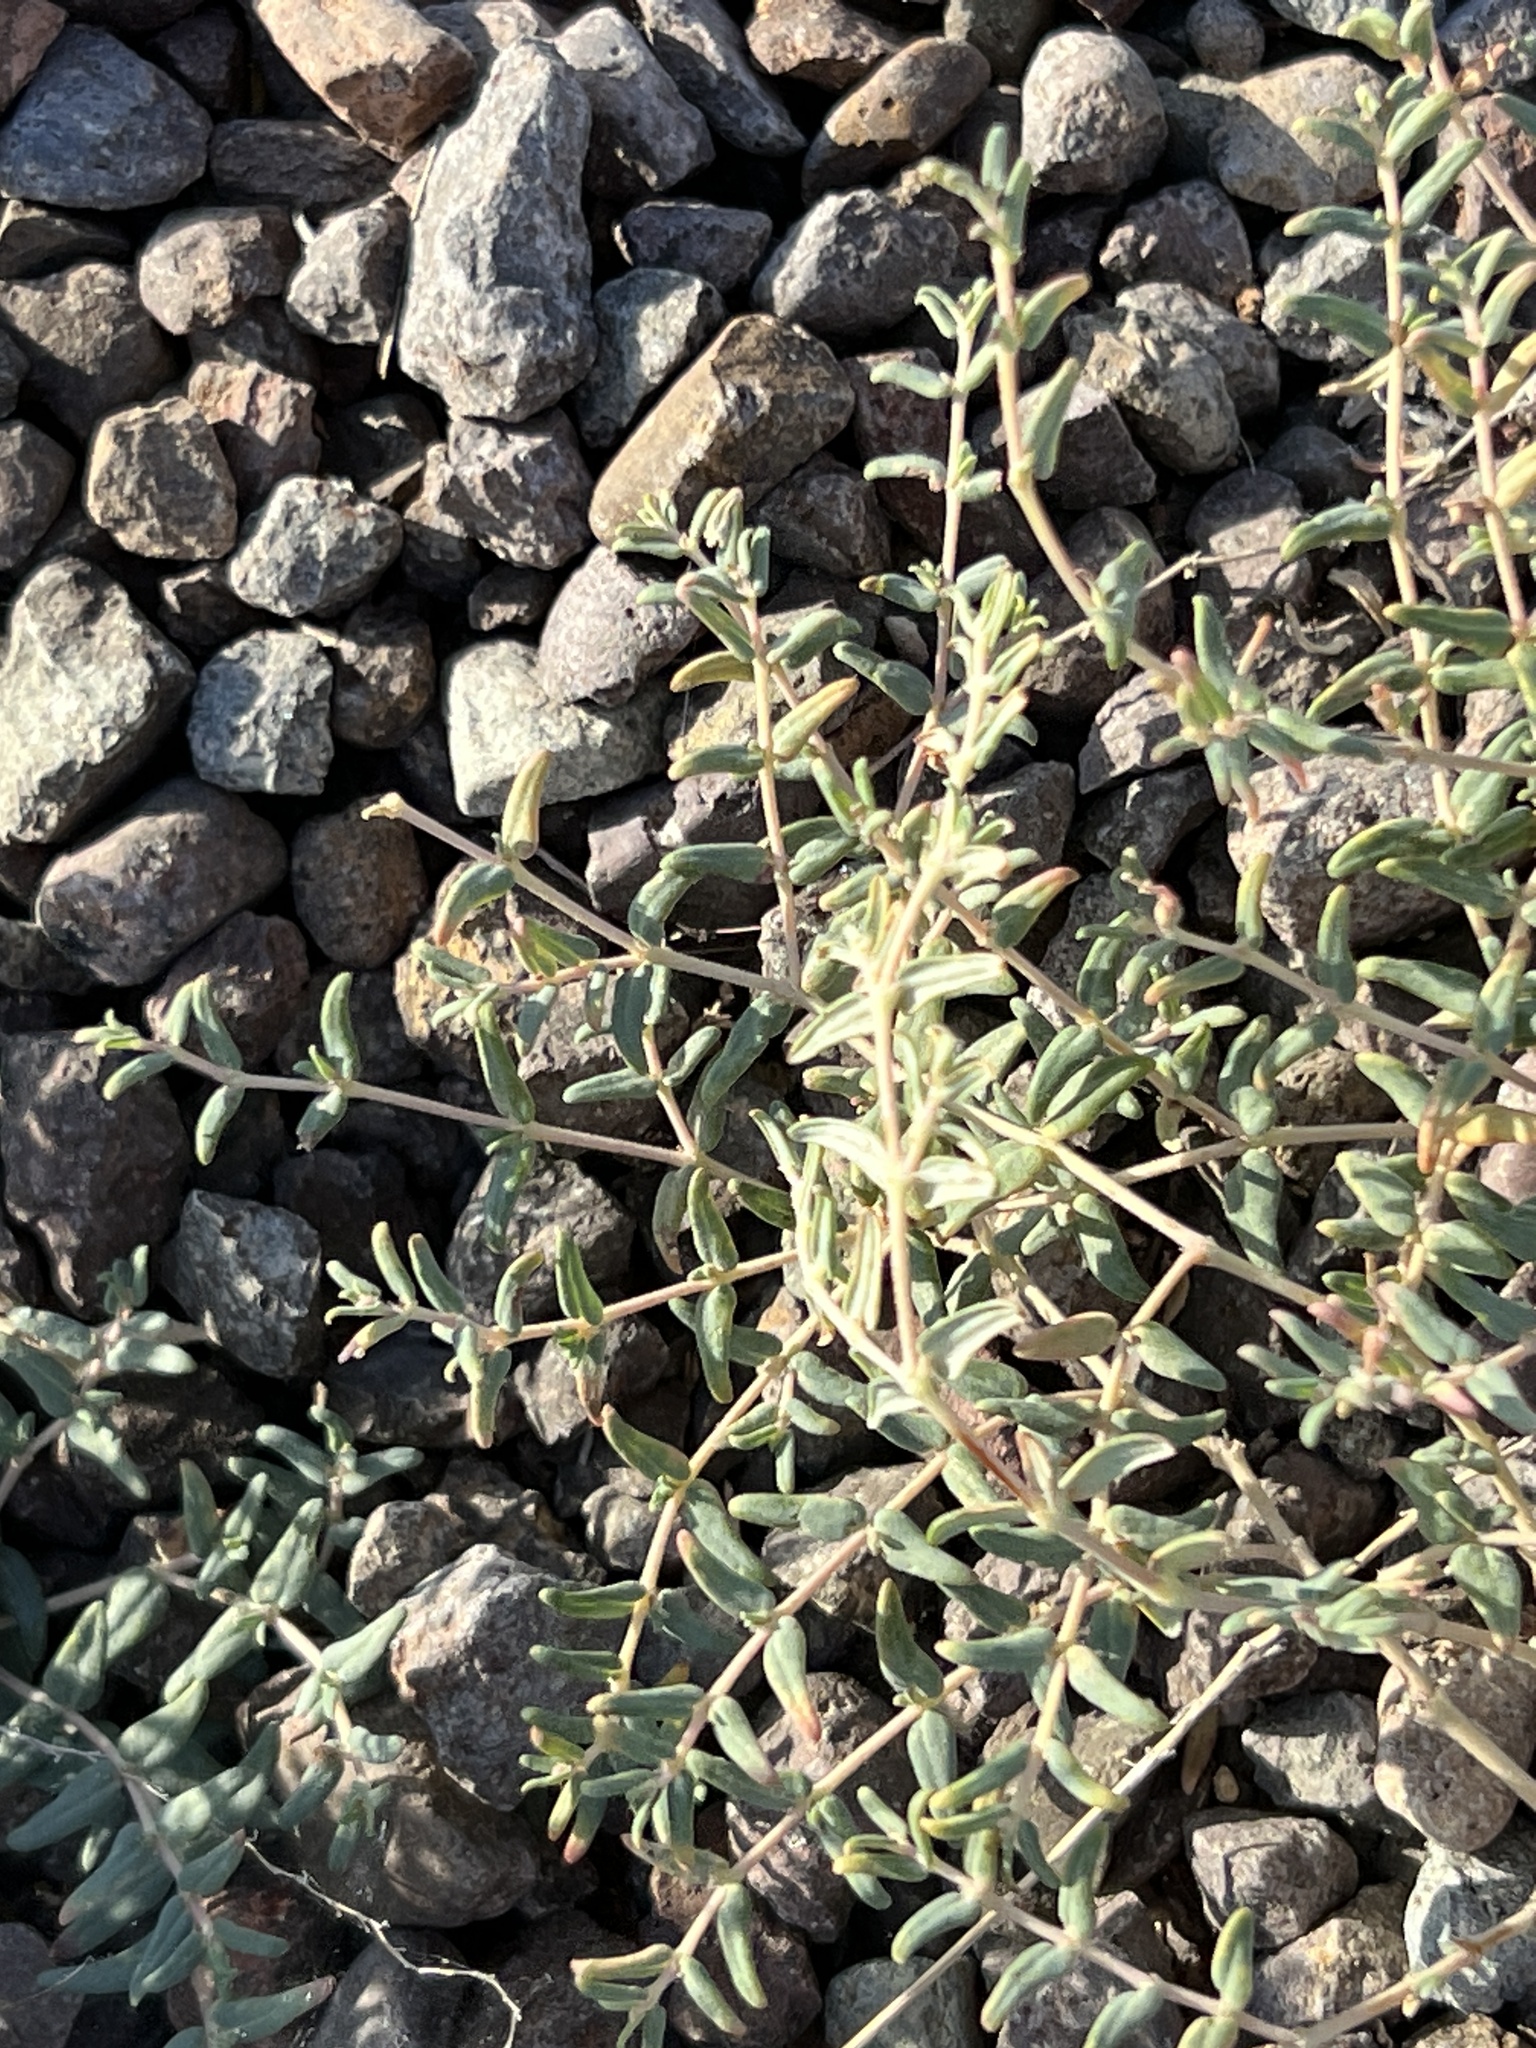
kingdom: Plantae
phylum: Tracheophyta
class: Magnoliopsida
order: Malpighiales
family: Euphorbiaceae
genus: Euphorbia
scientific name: Euphorbia lata
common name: Hoary euphorbia
